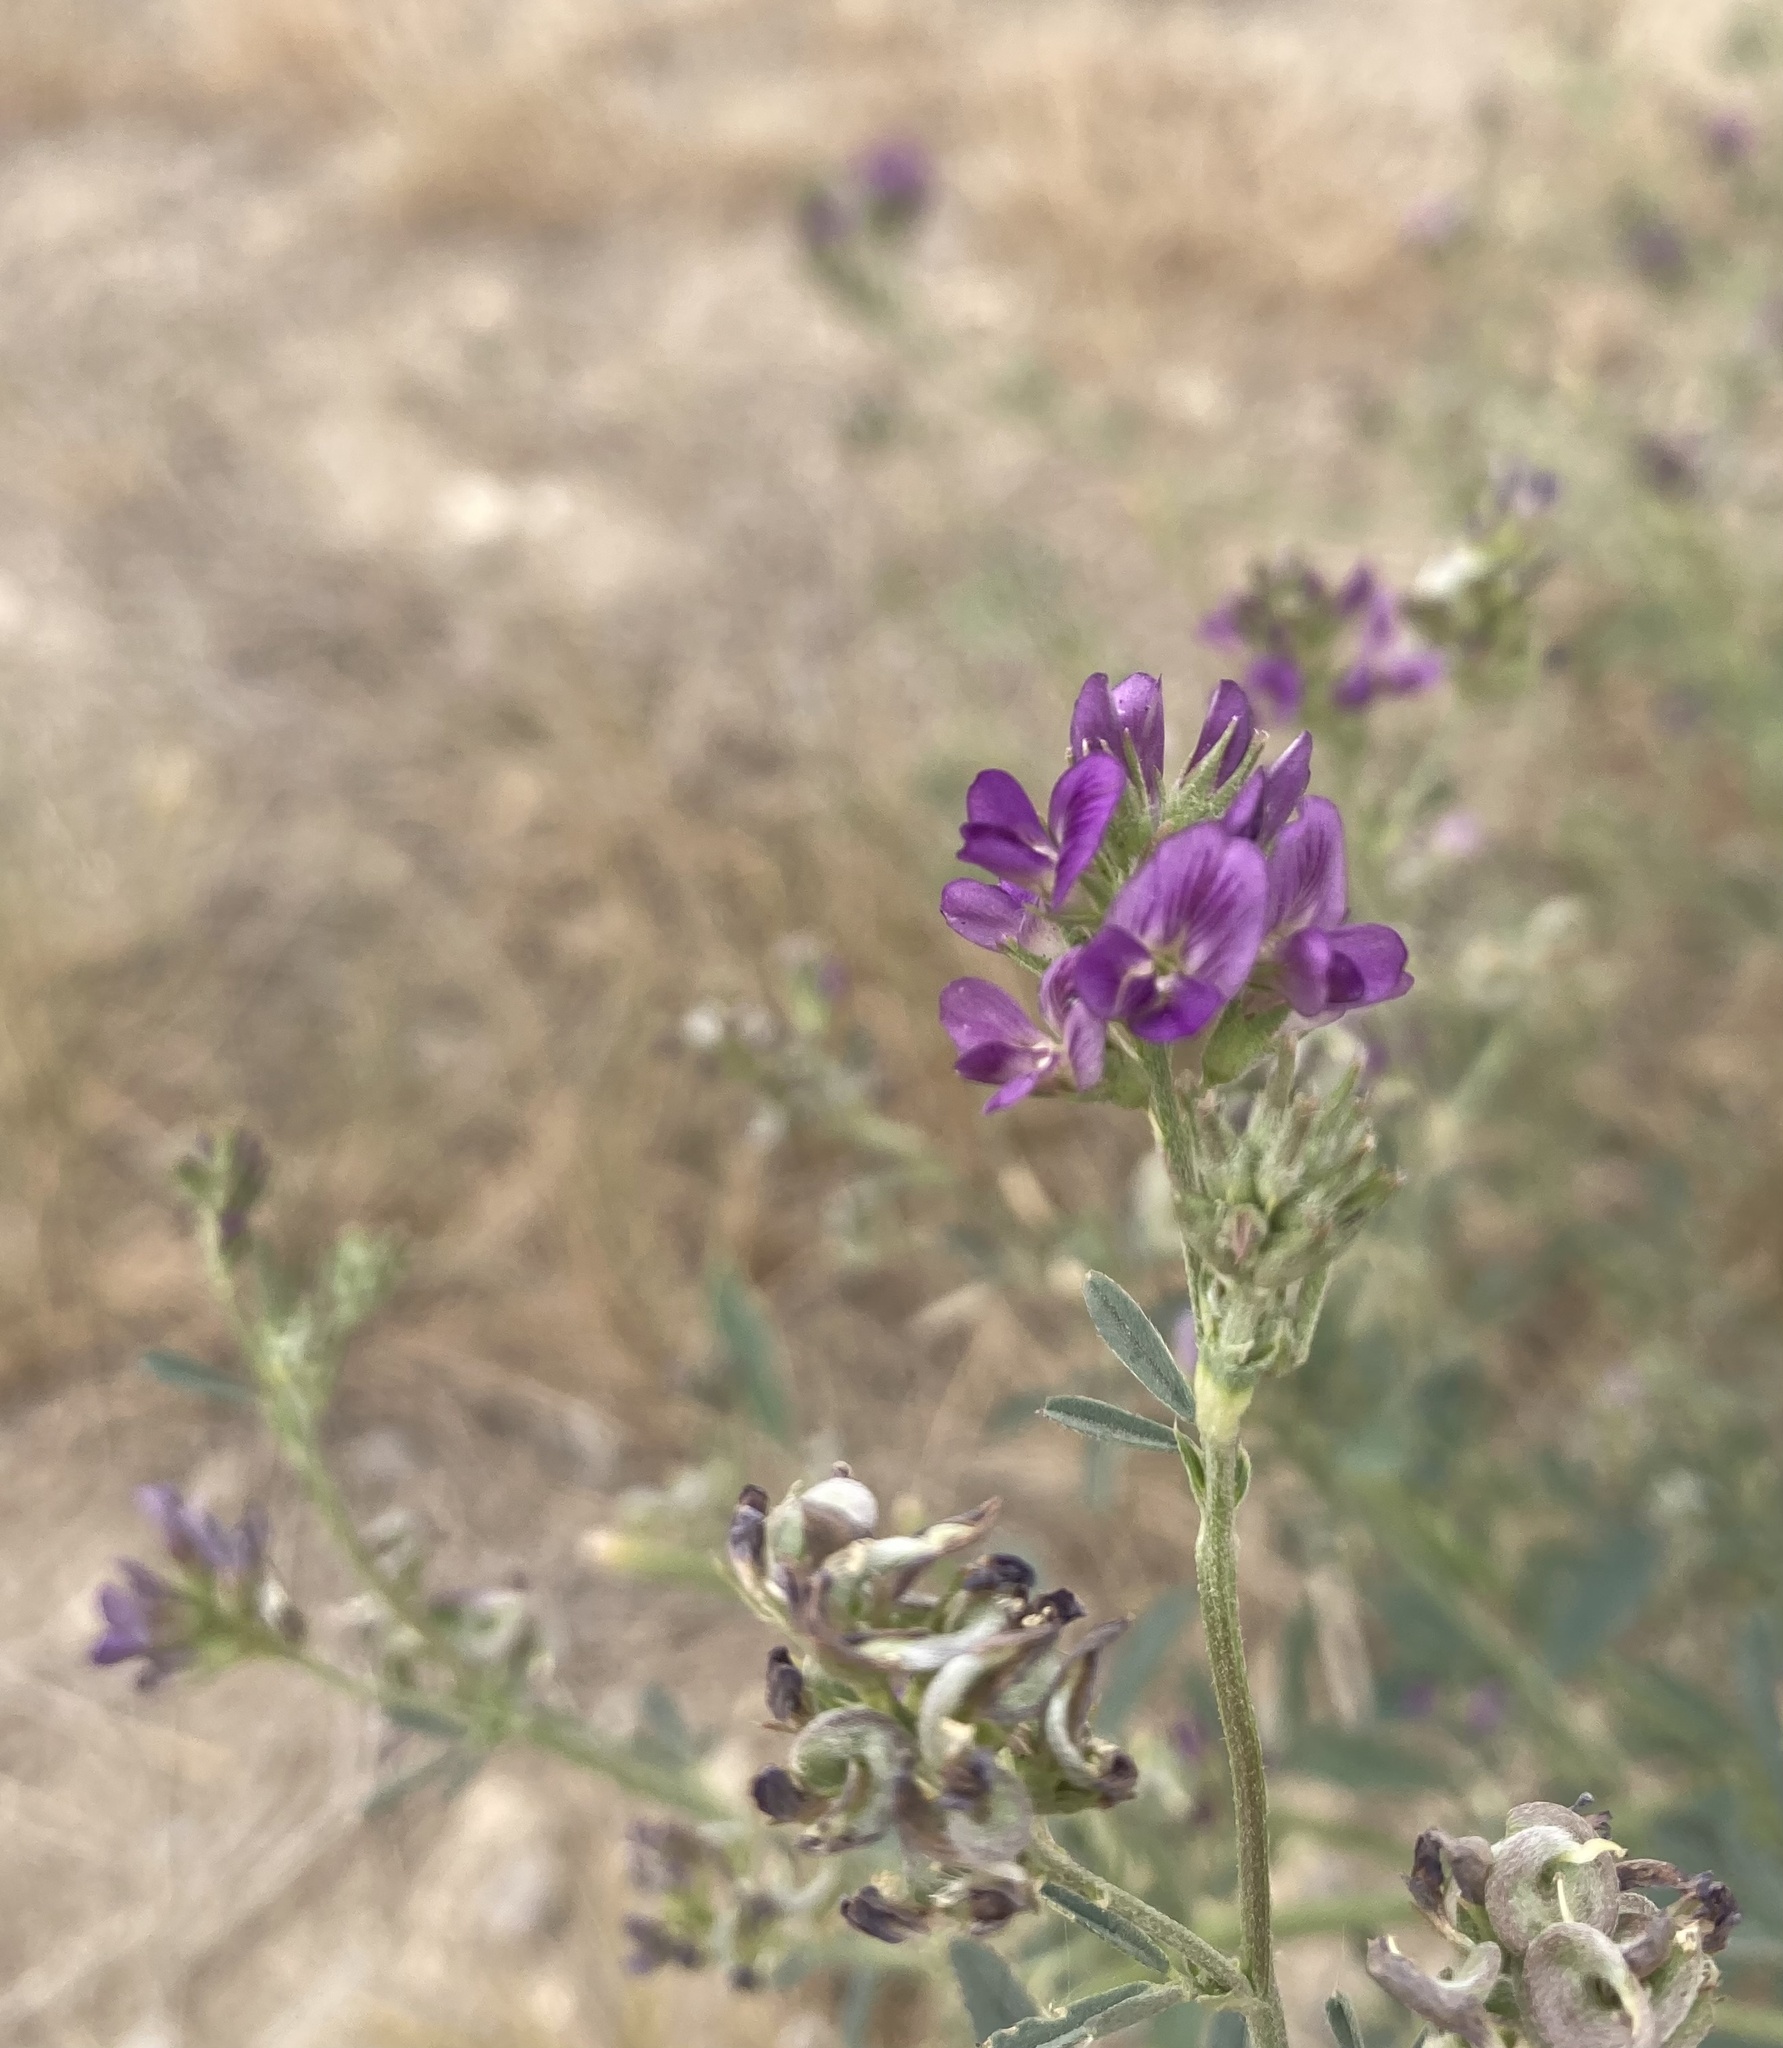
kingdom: Plantae
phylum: Tracheophyta
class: Magnoliopsida
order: Fabales
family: Fabaceae
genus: Medicago
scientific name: Medicago sativa
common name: Alfalfa
